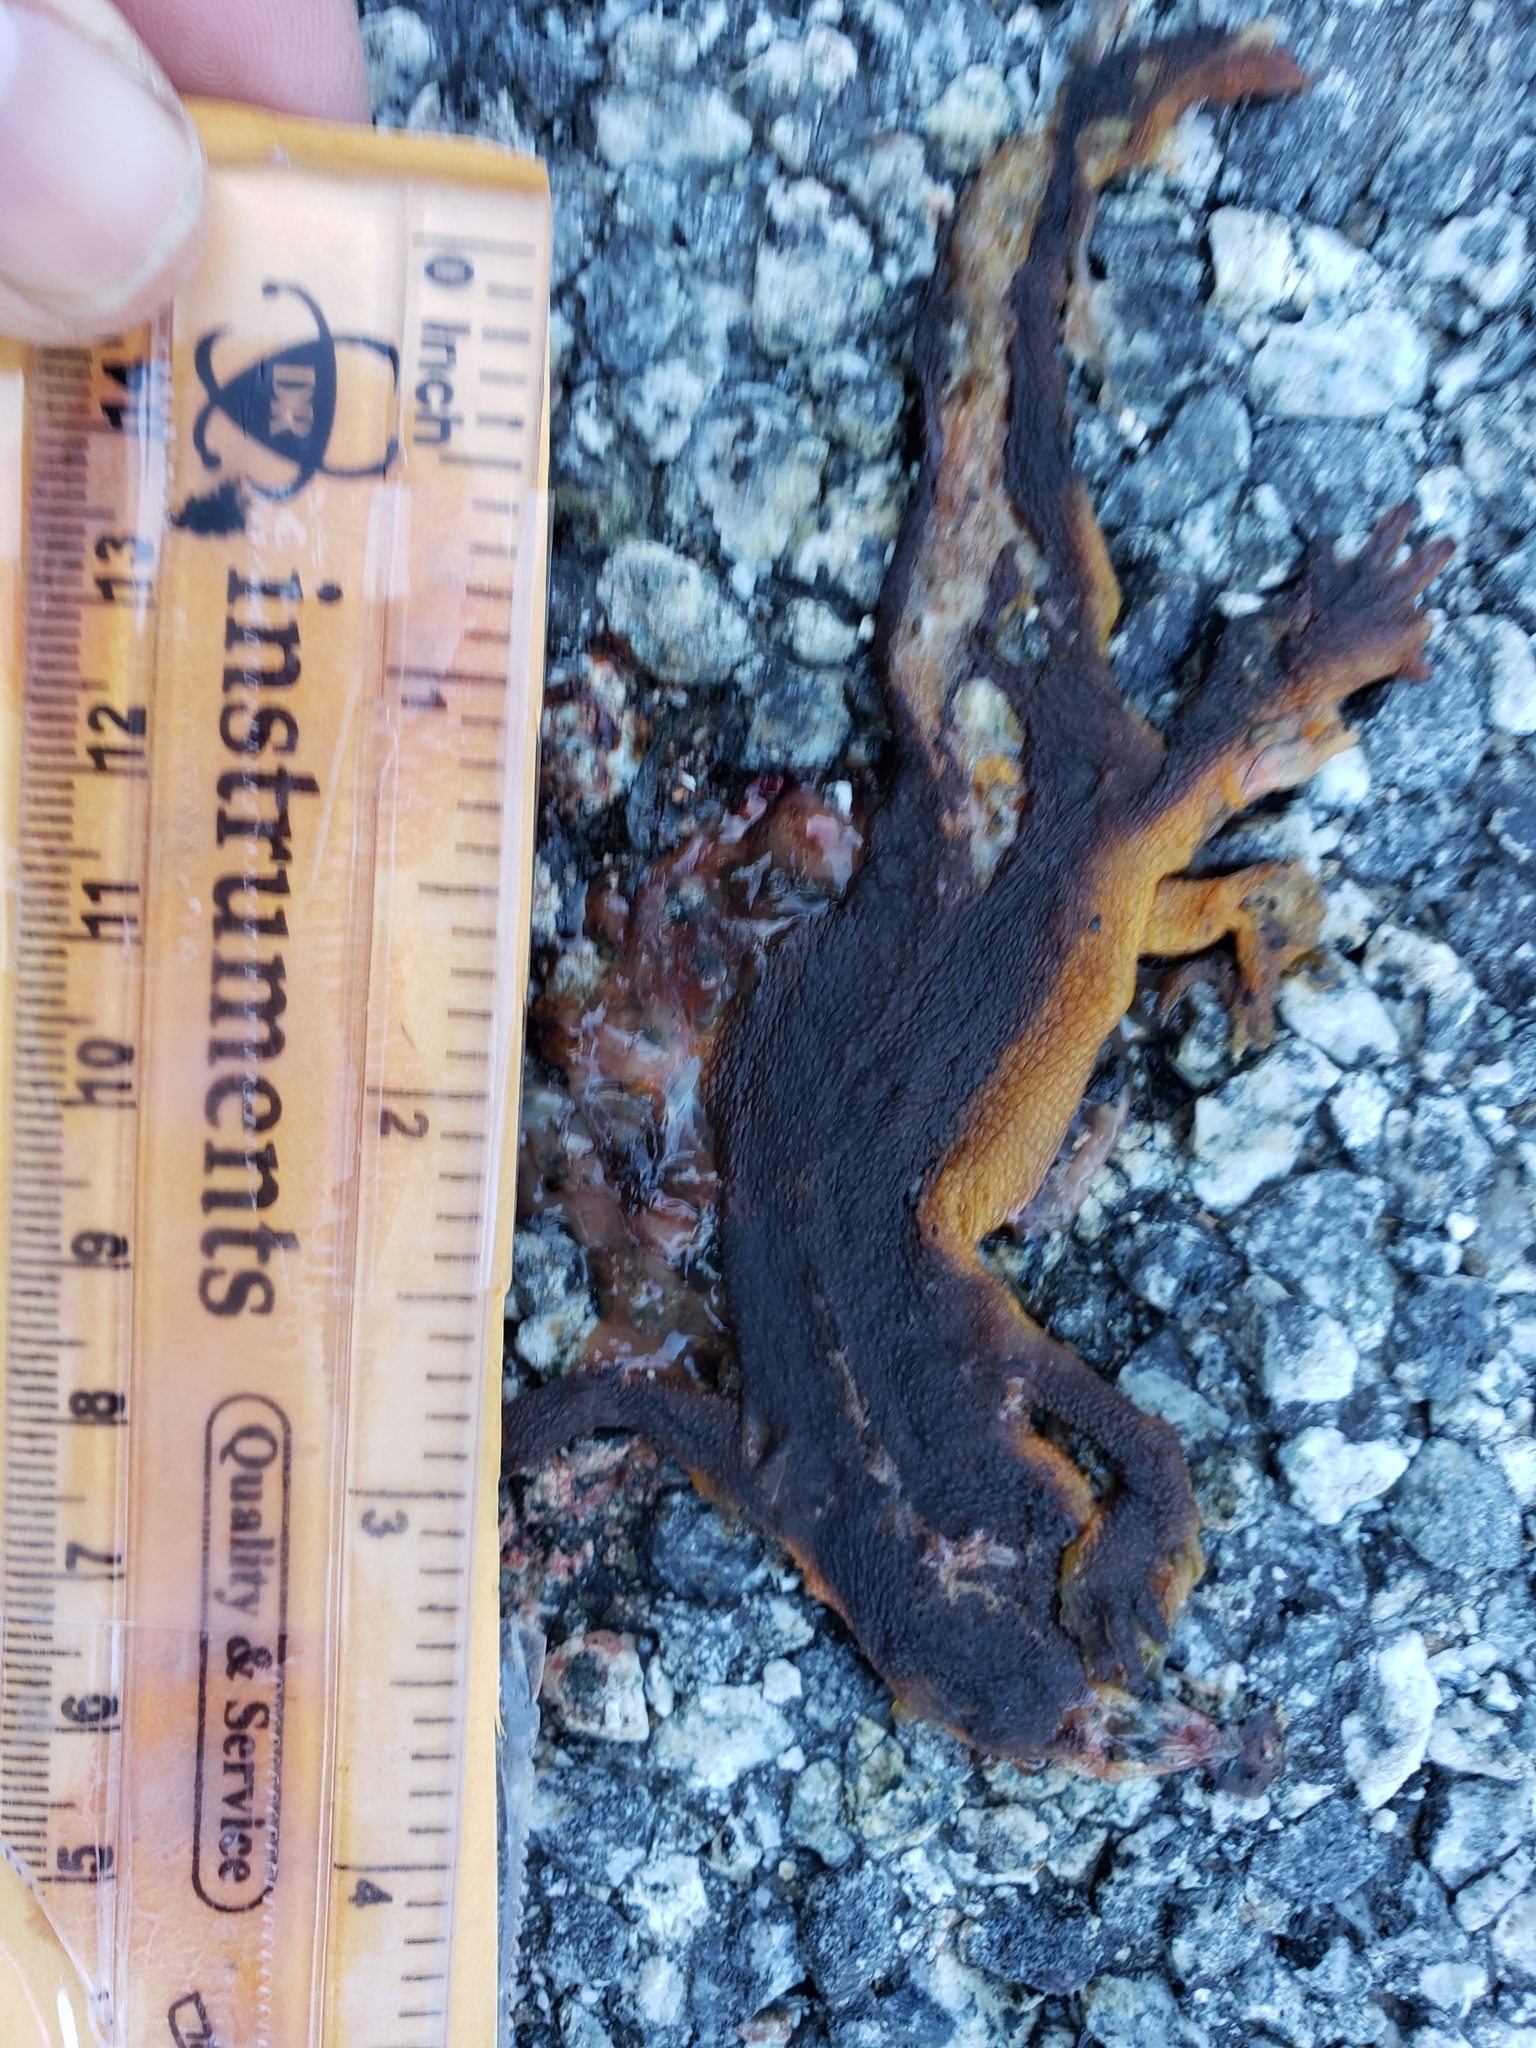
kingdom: Animalia
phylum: Chordata
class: Amphibia
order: Caudata
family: Salamandridae
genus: Taricha
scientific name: Taricha
